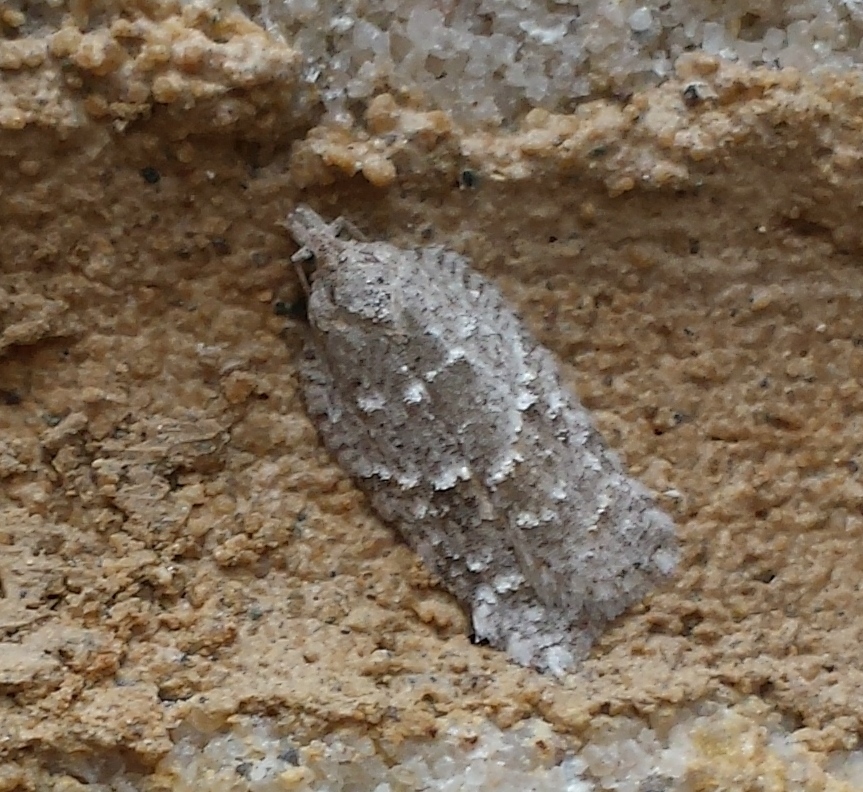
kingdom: Animalia
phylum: Arthropoda
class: Insecta
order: Lepidoptera
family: Tortricidae
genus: Acleris
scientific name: Acleris placidana
